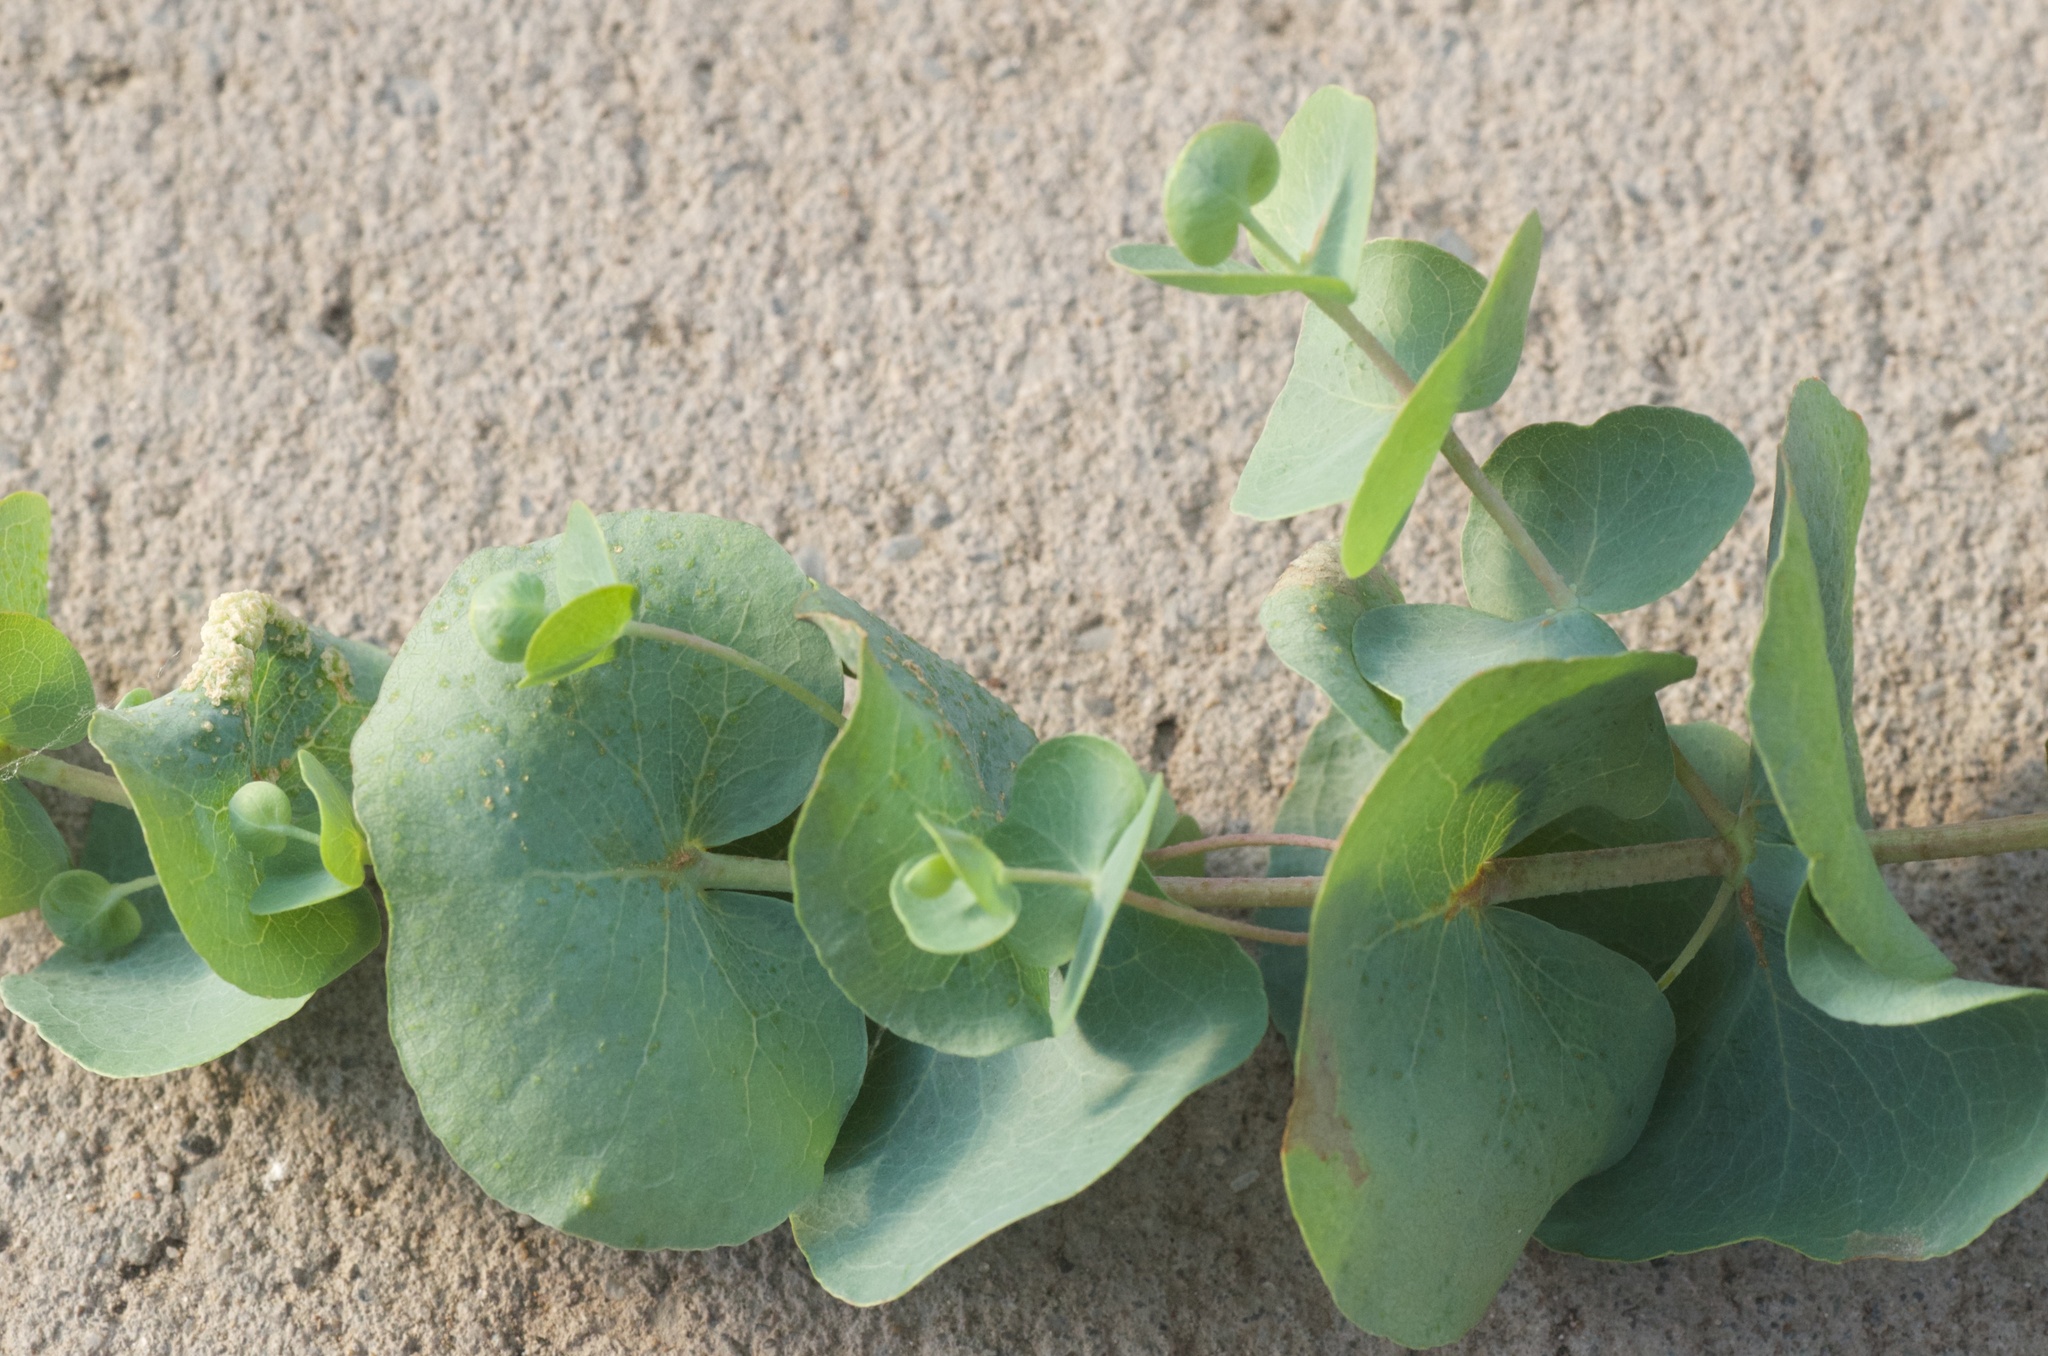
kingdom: Plantae
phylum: Tracheophyta
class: Magnoliopsida
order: Myrtales
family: Myrtaceae
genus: Eucalyptus
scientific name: Eucalyptus cinerea
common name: Argyle apple
